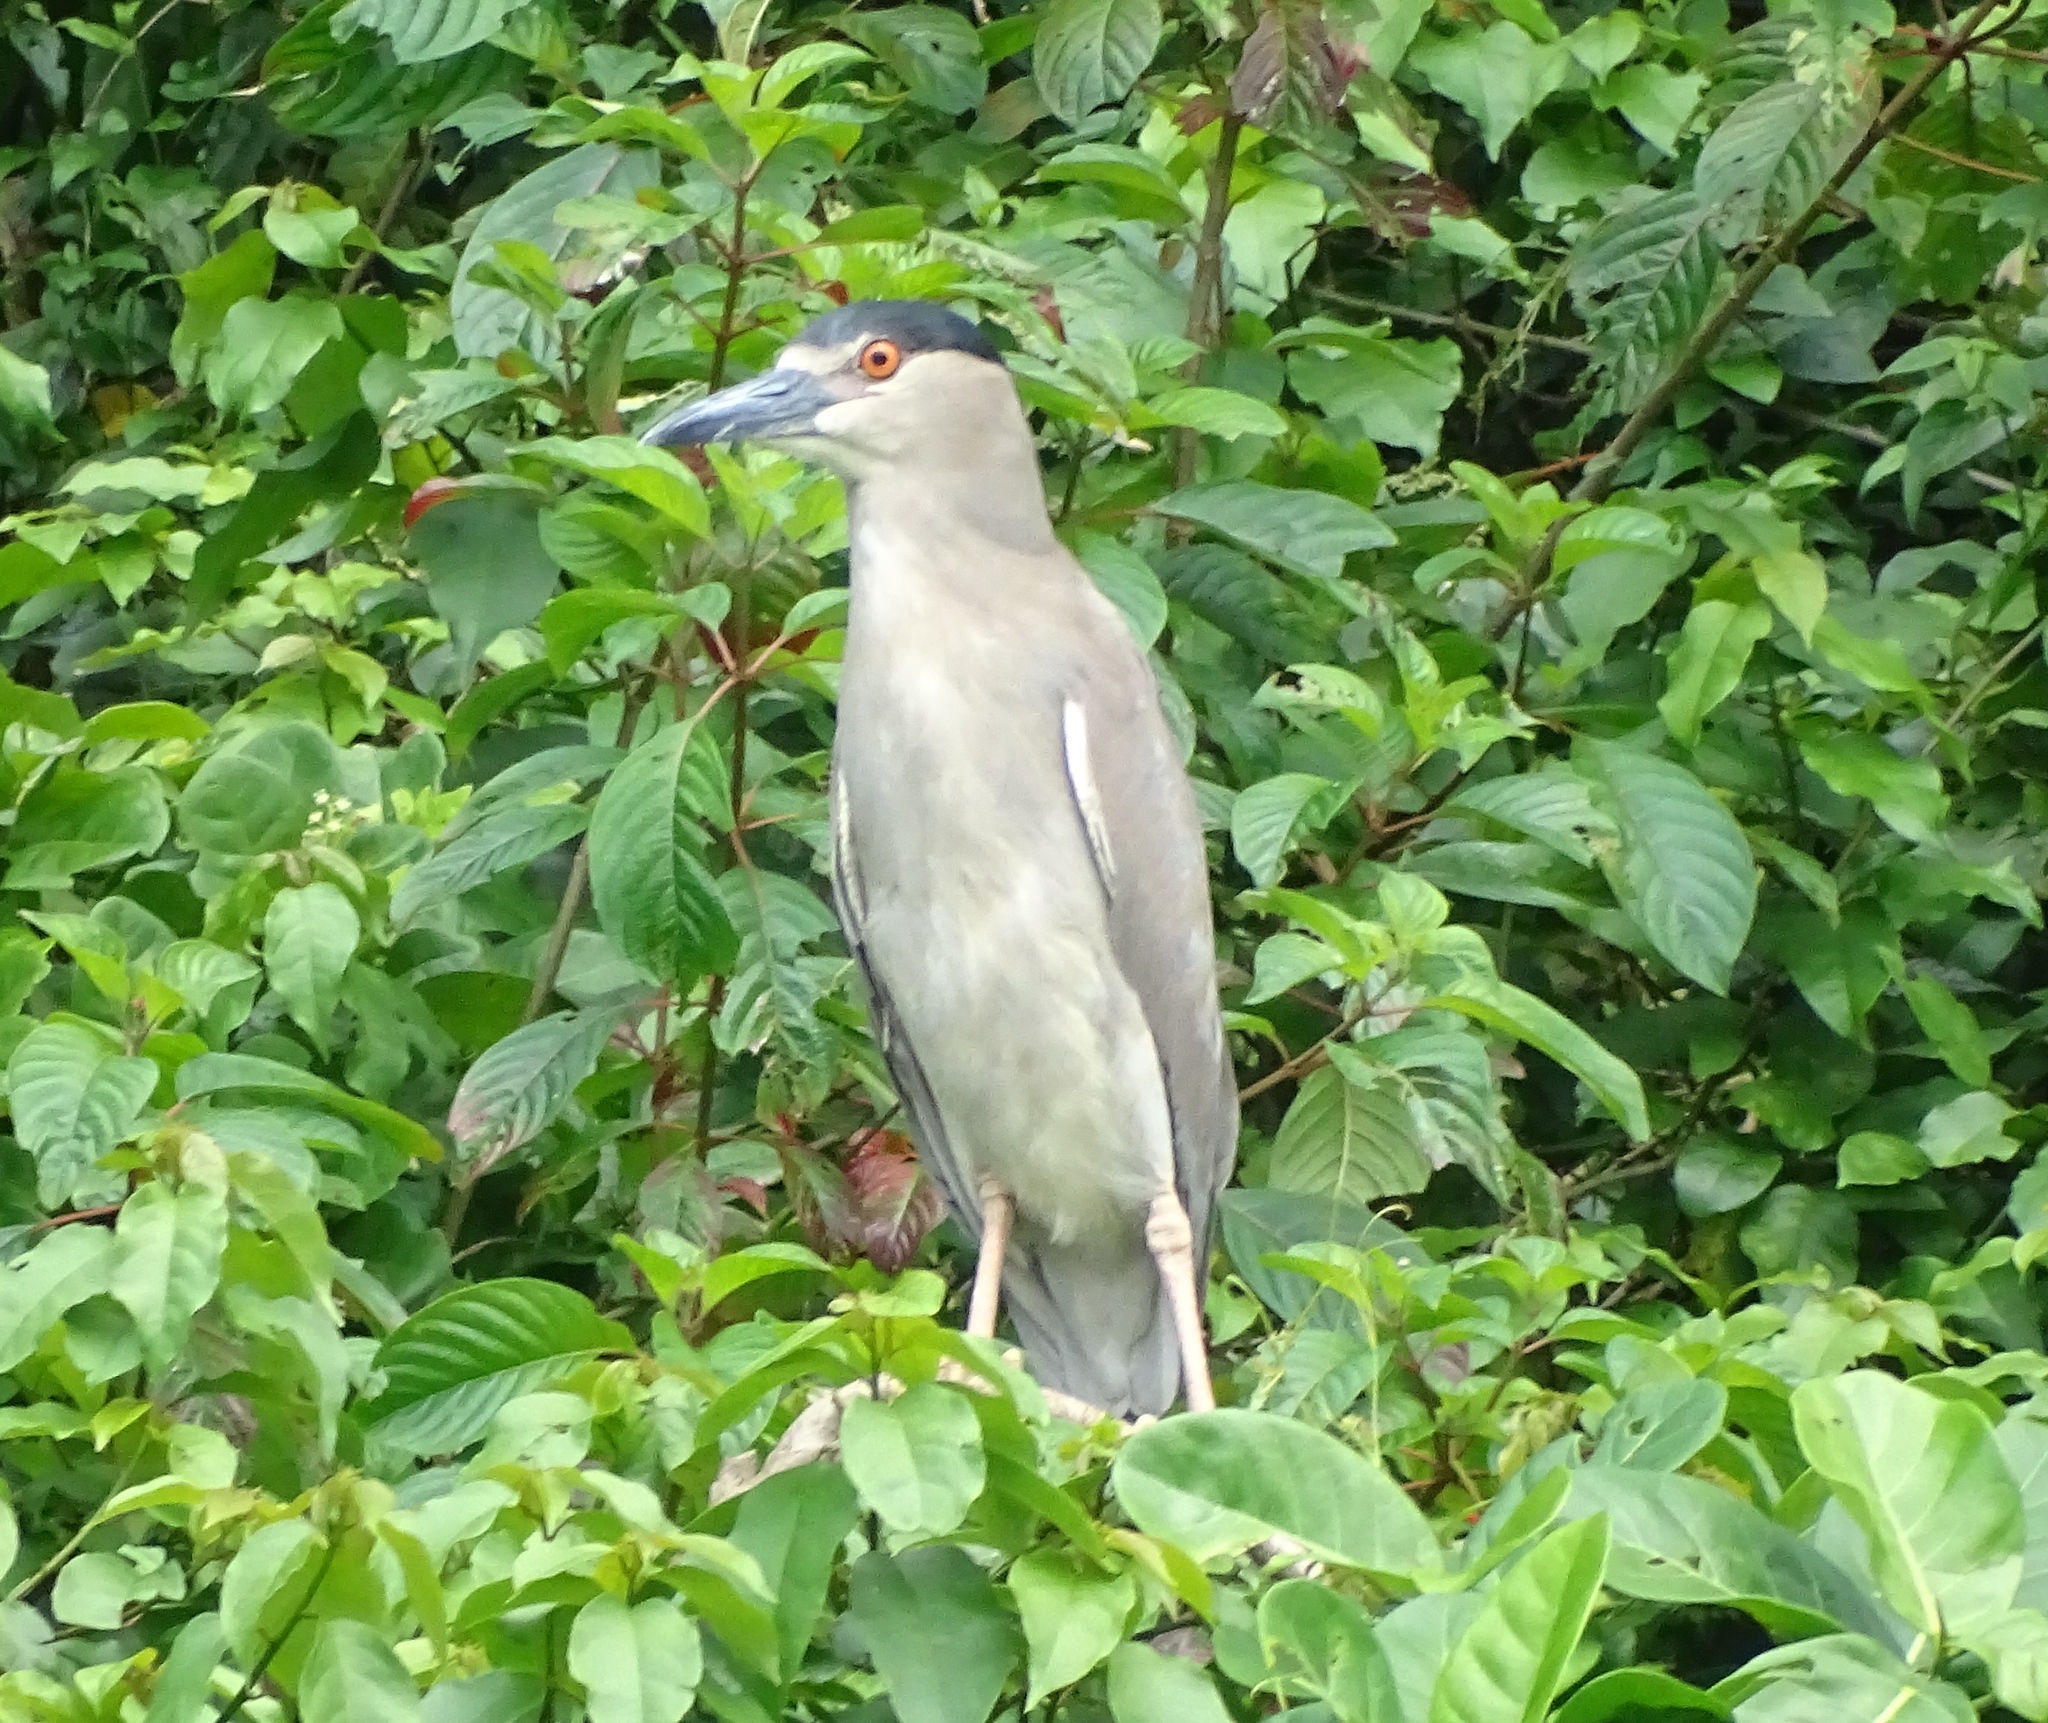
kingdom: Animalia
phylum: Chordata
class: Aves
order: Pelecaniformes
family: Ardeidae
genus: Nycticorax
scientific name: Nycticorax nycticorax
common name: Black-crowned night heron
